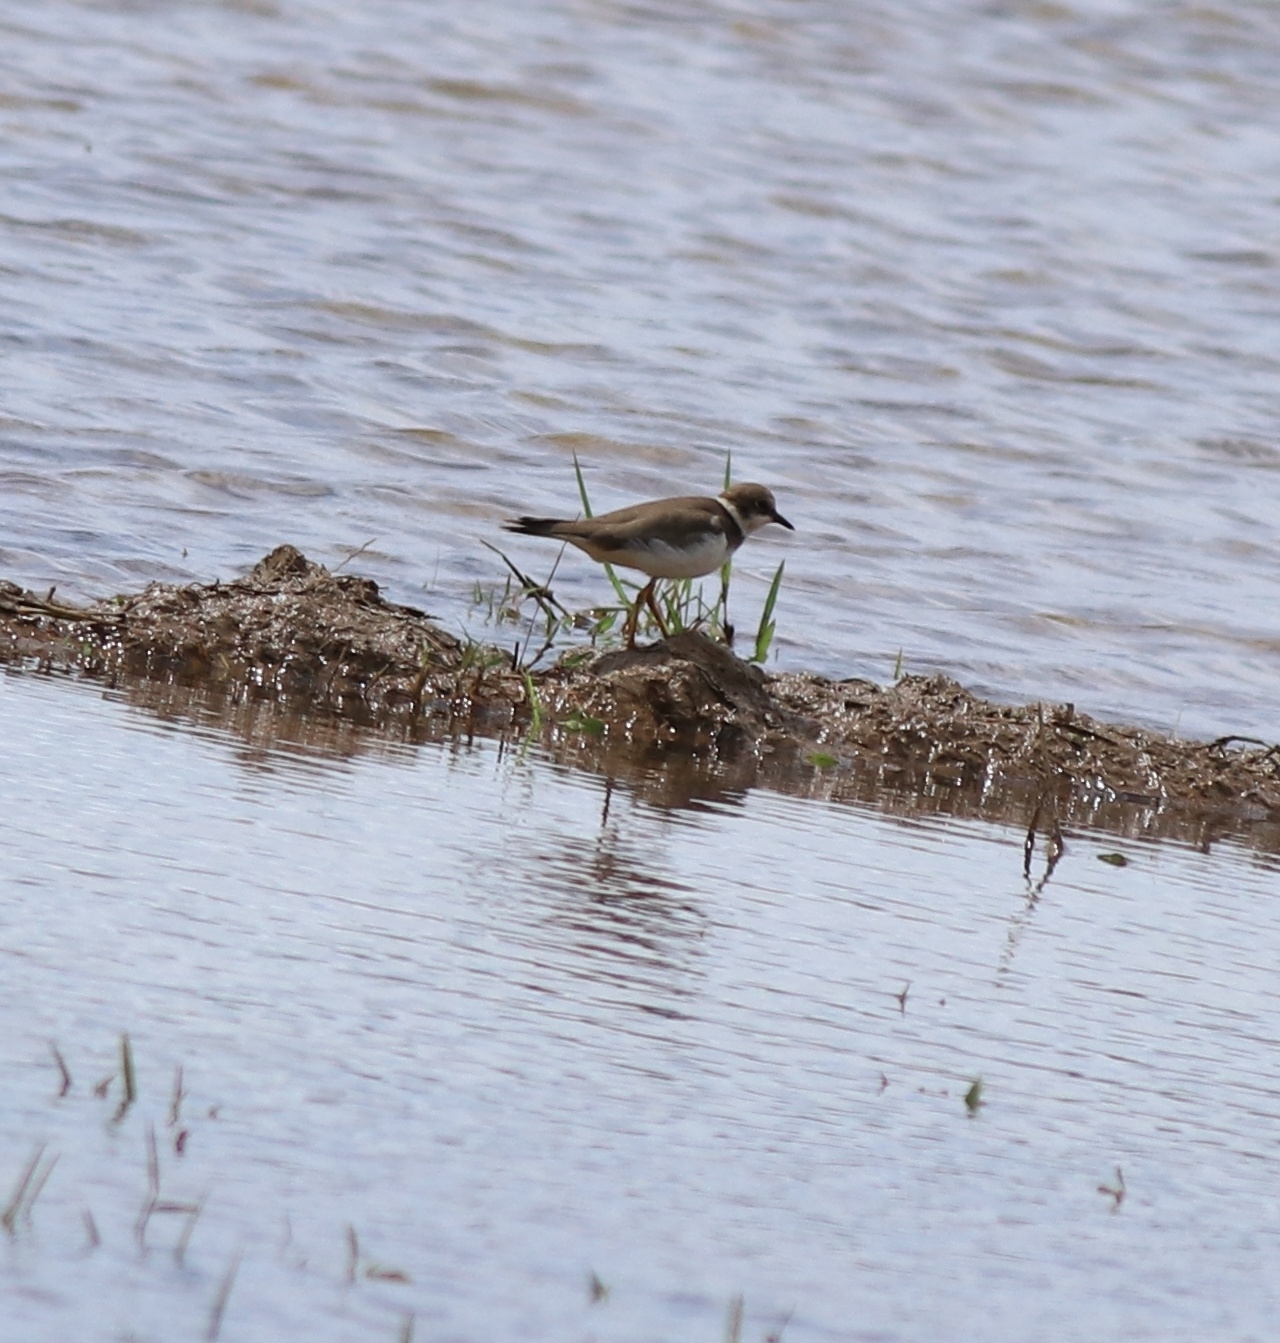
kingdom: Animalia
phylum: Chordata
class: Aves
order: Charadriiformes
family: Charadriidae
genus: Charadrius
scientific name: Charadrius dubius
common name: Little ringed plover
